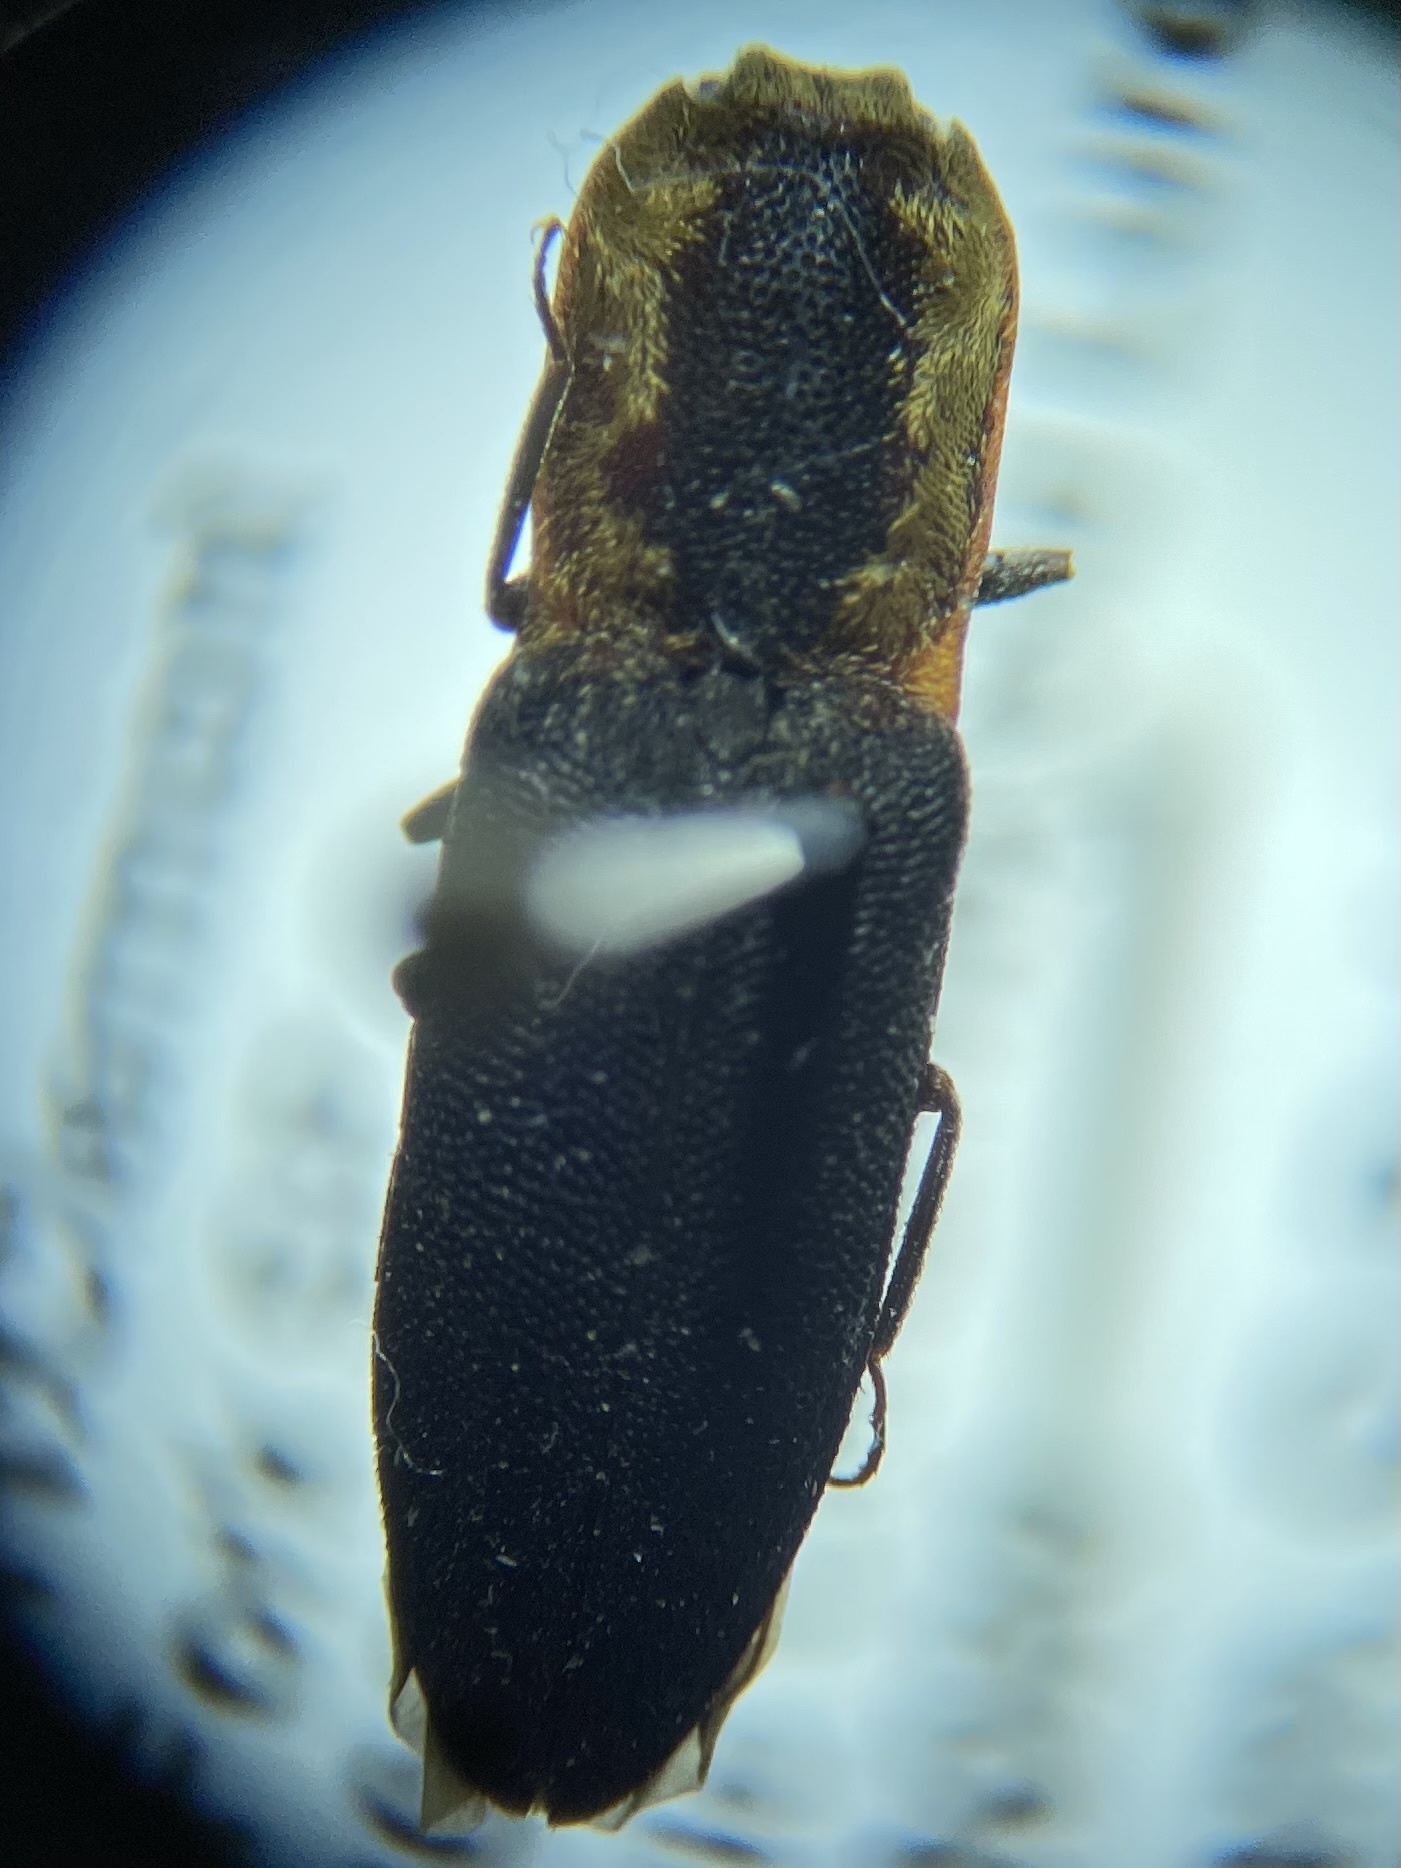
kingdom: Animalia
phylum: Arthropoda
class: Insecta
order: Coleoptera
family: Elateridae
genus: Lacon
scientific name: Lacon discoideus
